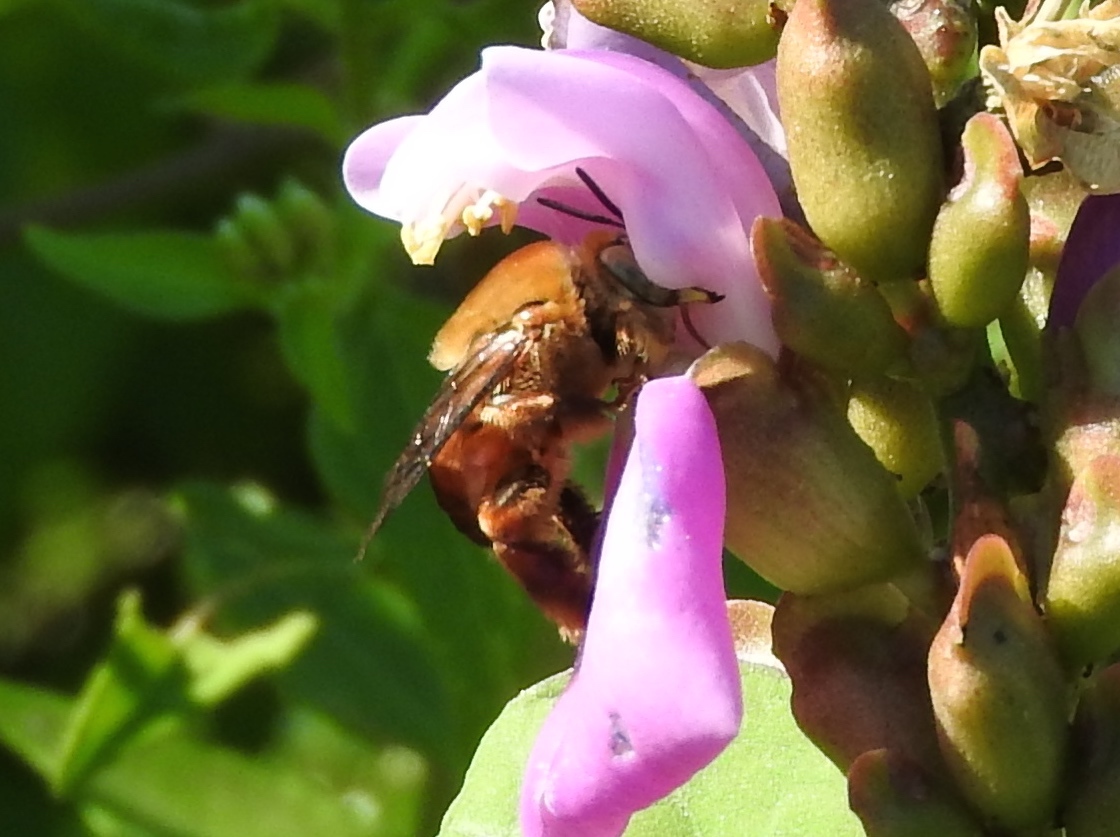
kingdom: Animalia
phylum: Arthropoda
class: Insecta
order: Hymenoptera
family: Apidae
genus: Centris
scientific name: Centris eurypatana
